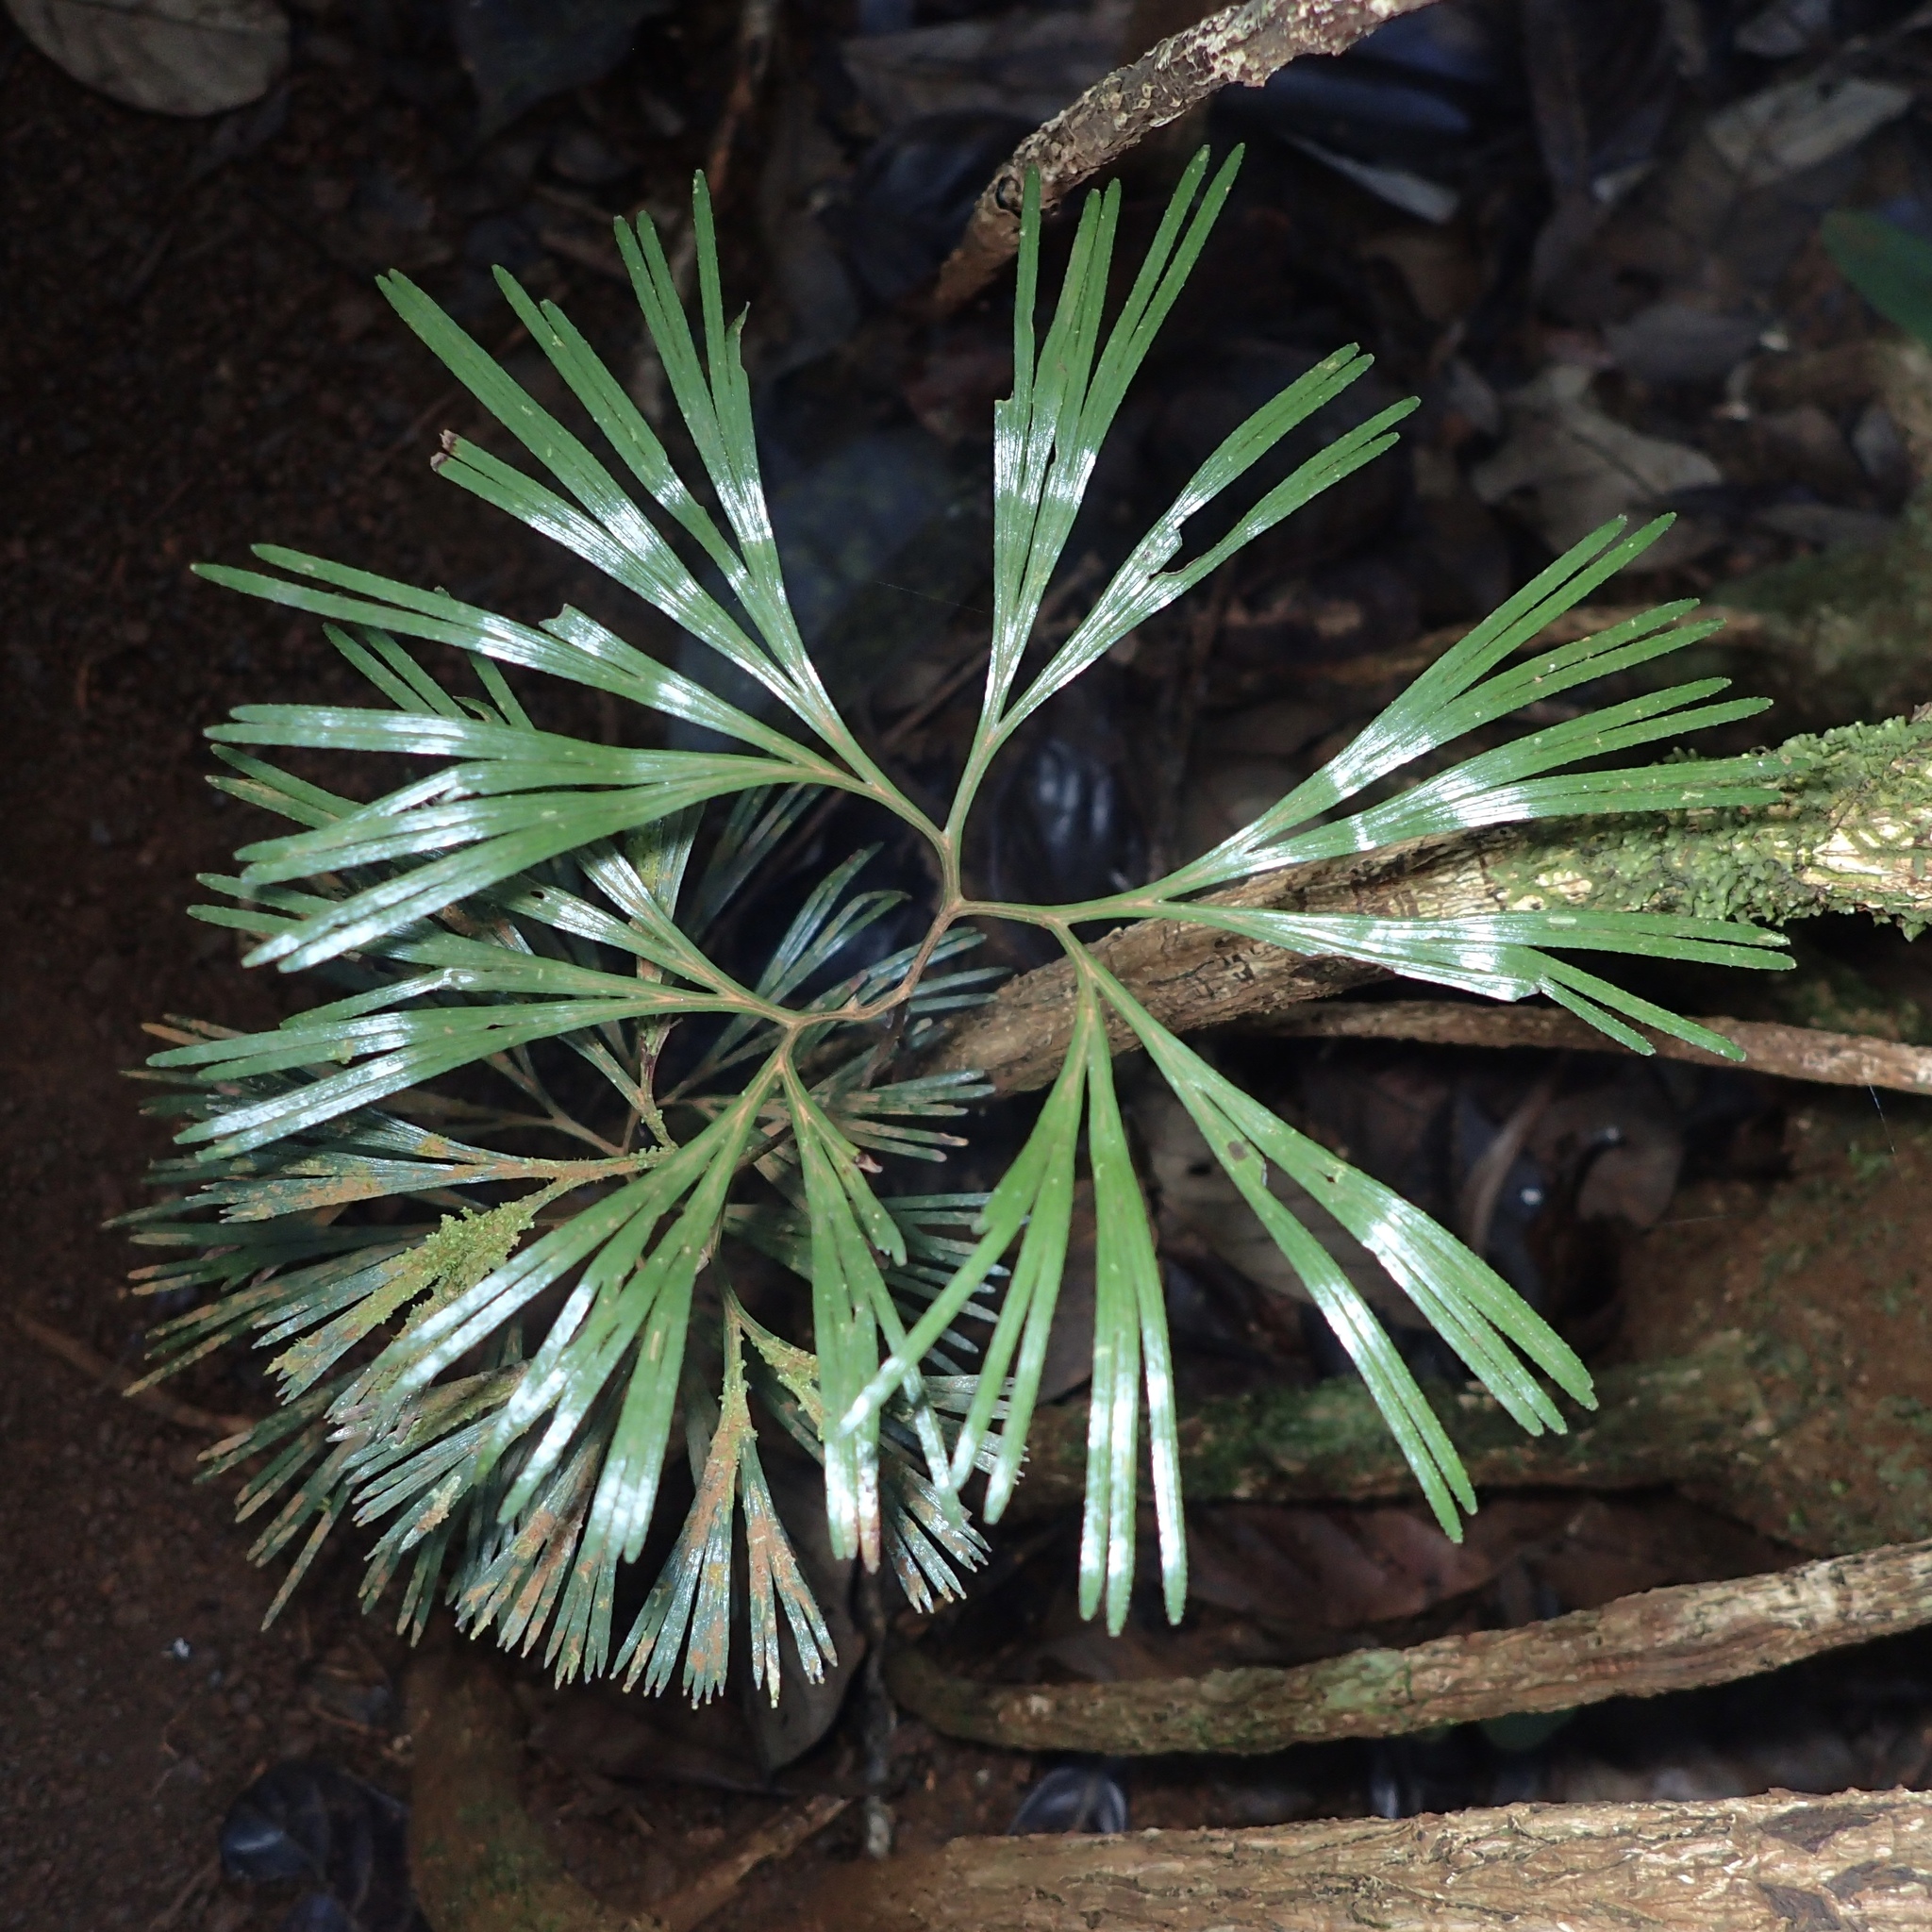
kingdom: Plantae
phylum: Tracheophyta
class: Polypodiopsida
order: Schizaeales
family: Schizaeaceae
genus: Schizaea
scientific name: Schizaea dichotoma
